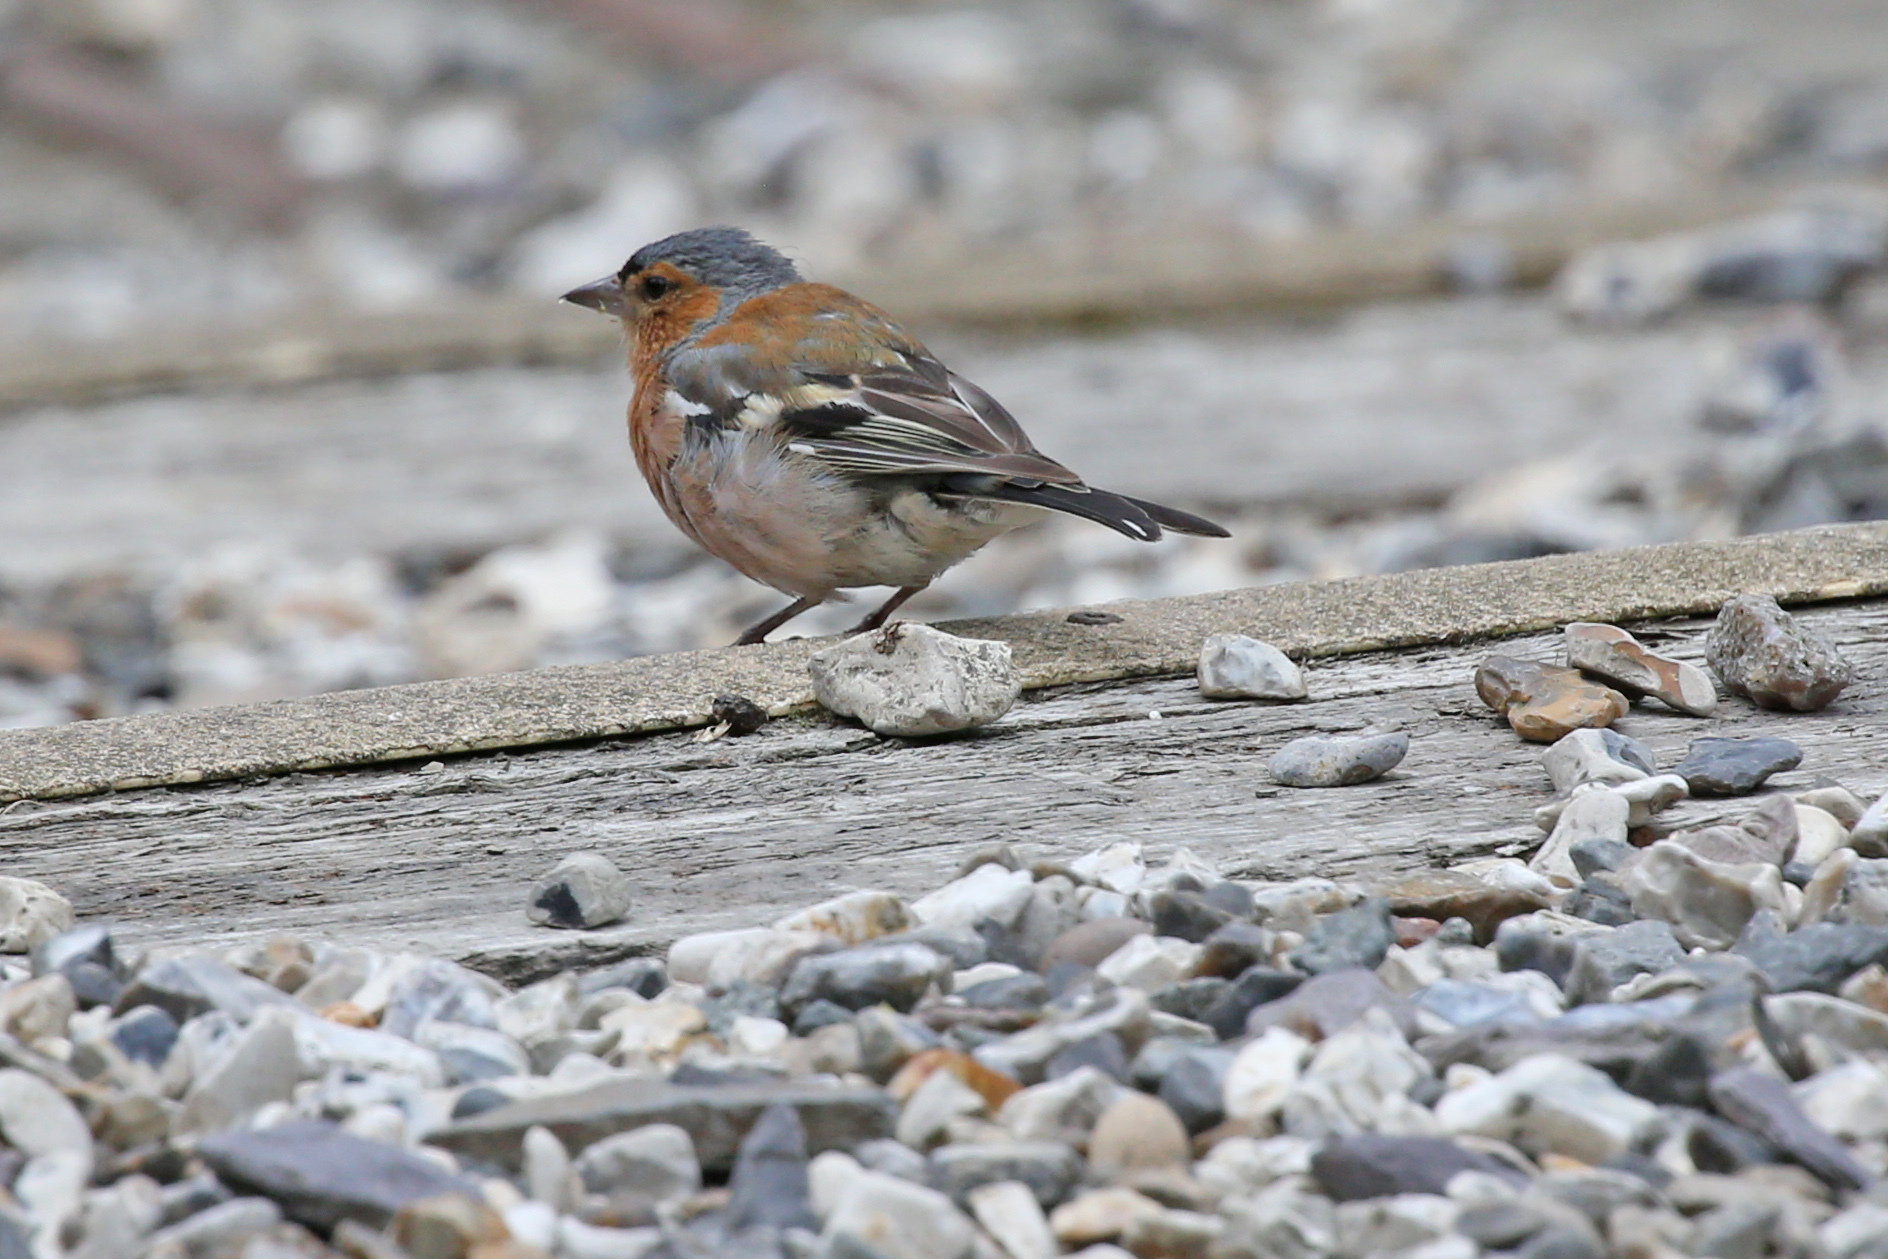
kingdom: Animalia
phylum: Chordata
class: Aves
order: Passeriformes
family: Fringillidae
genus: Fringilla
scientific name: Fringilla coelebs
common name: Common chaffinch
